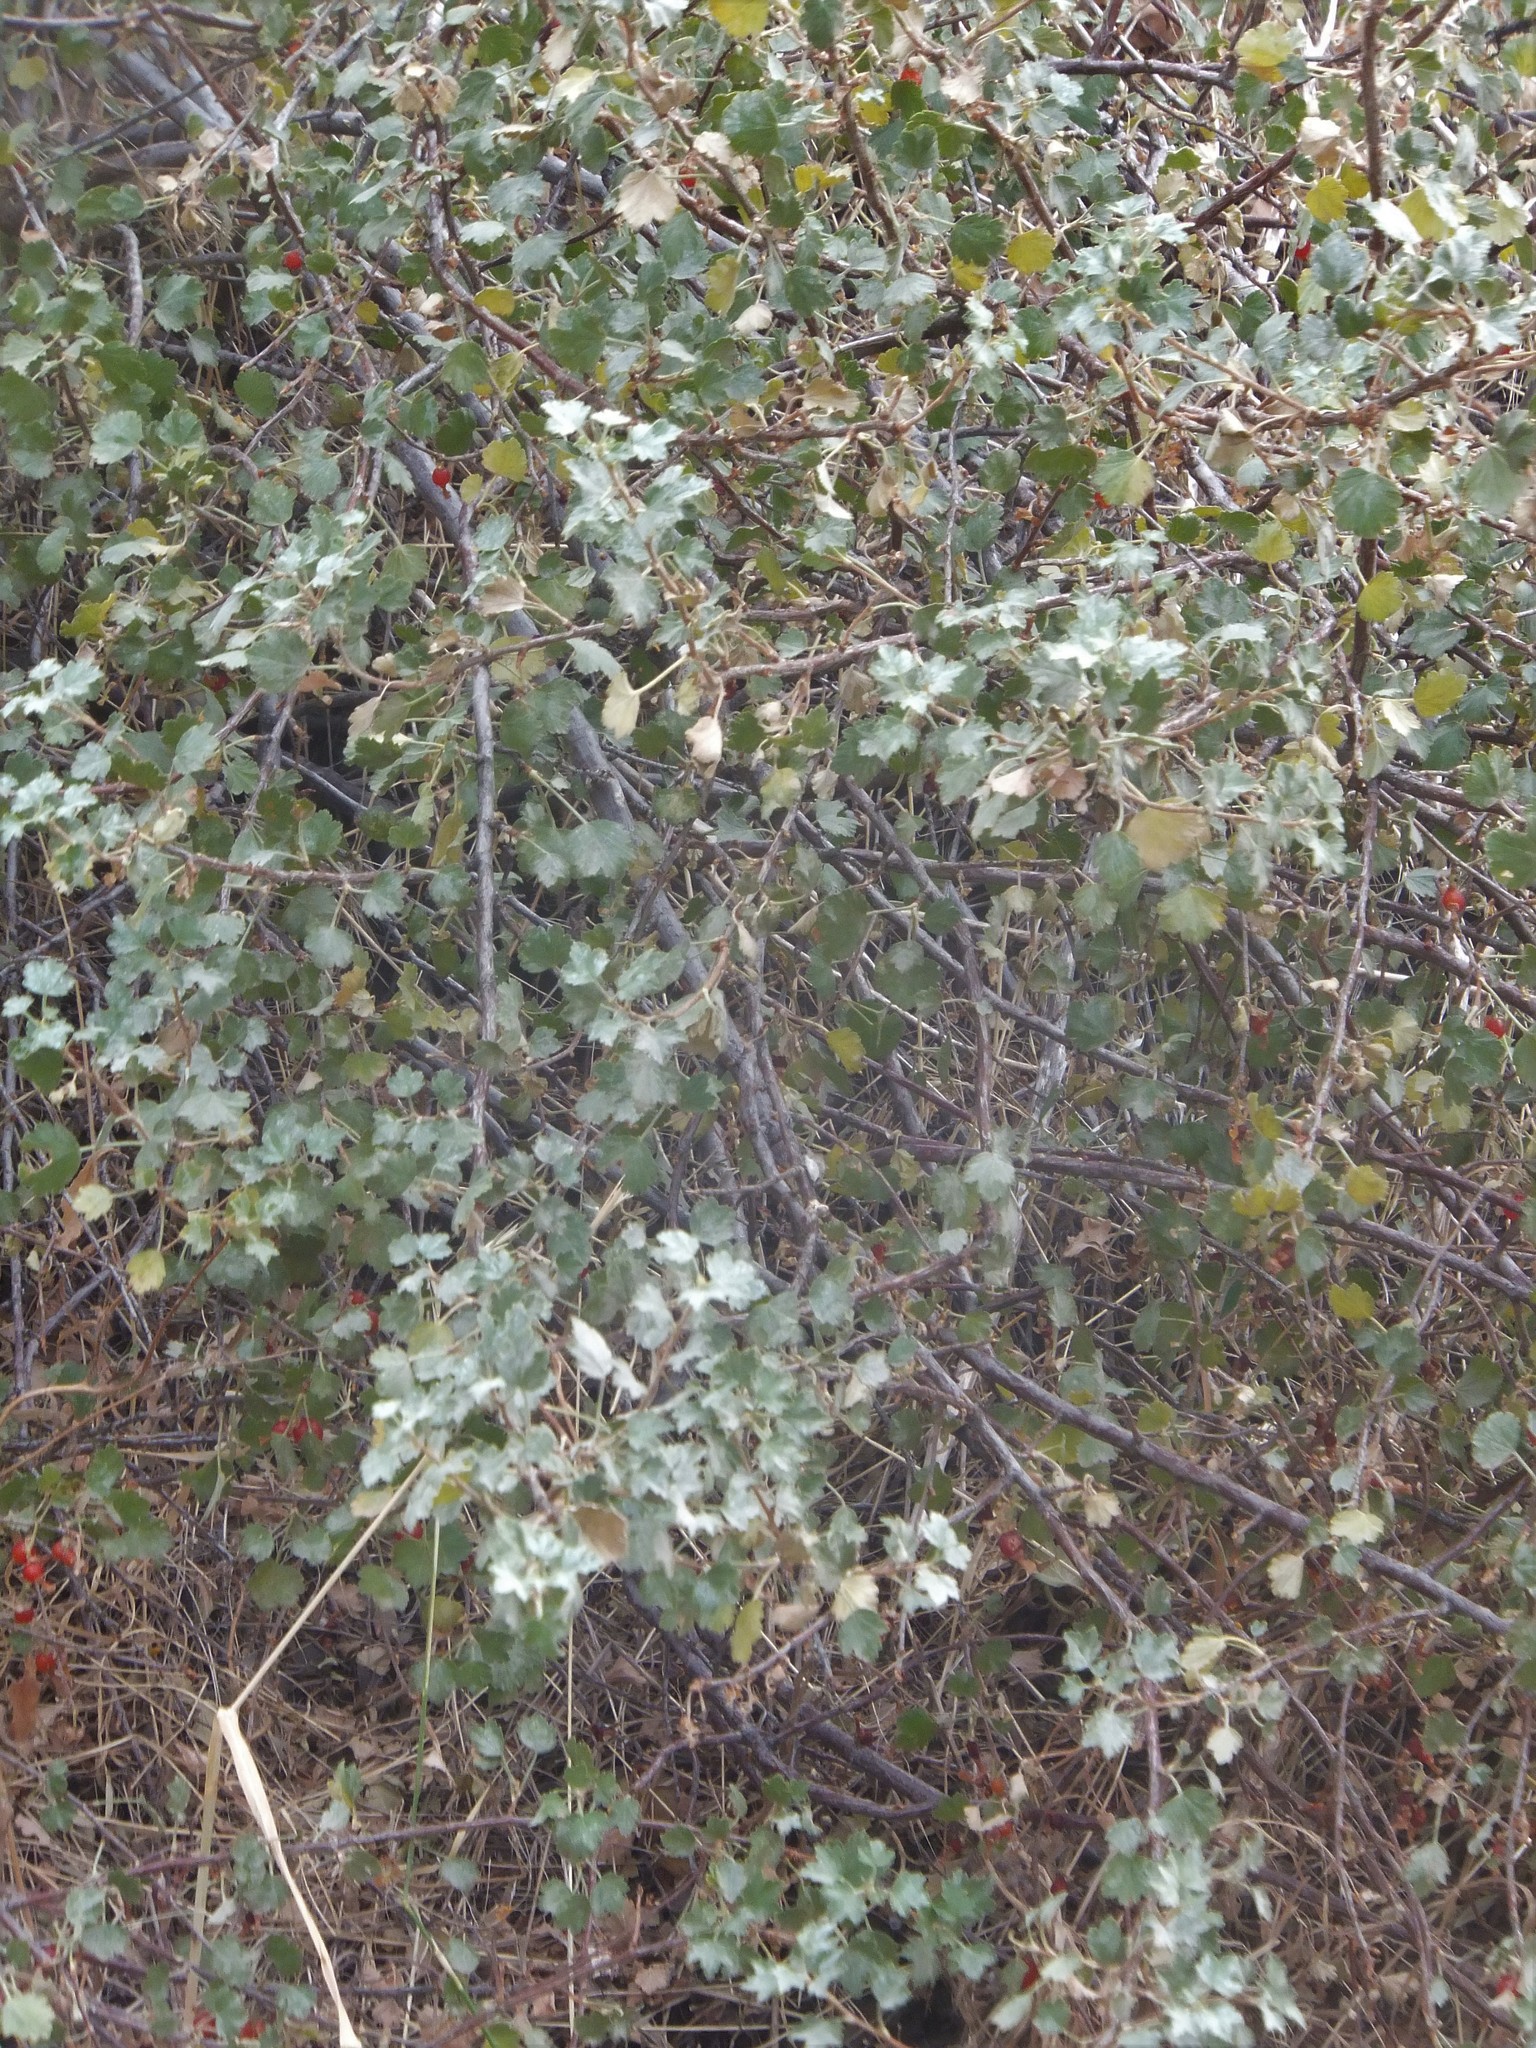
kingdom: Plantae
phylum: Tracheophyta
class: Magnoliopsida
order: Saxifragales
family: Grossulariaceae
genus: Ribes
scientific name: Ribes cereum
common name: Wax currant
